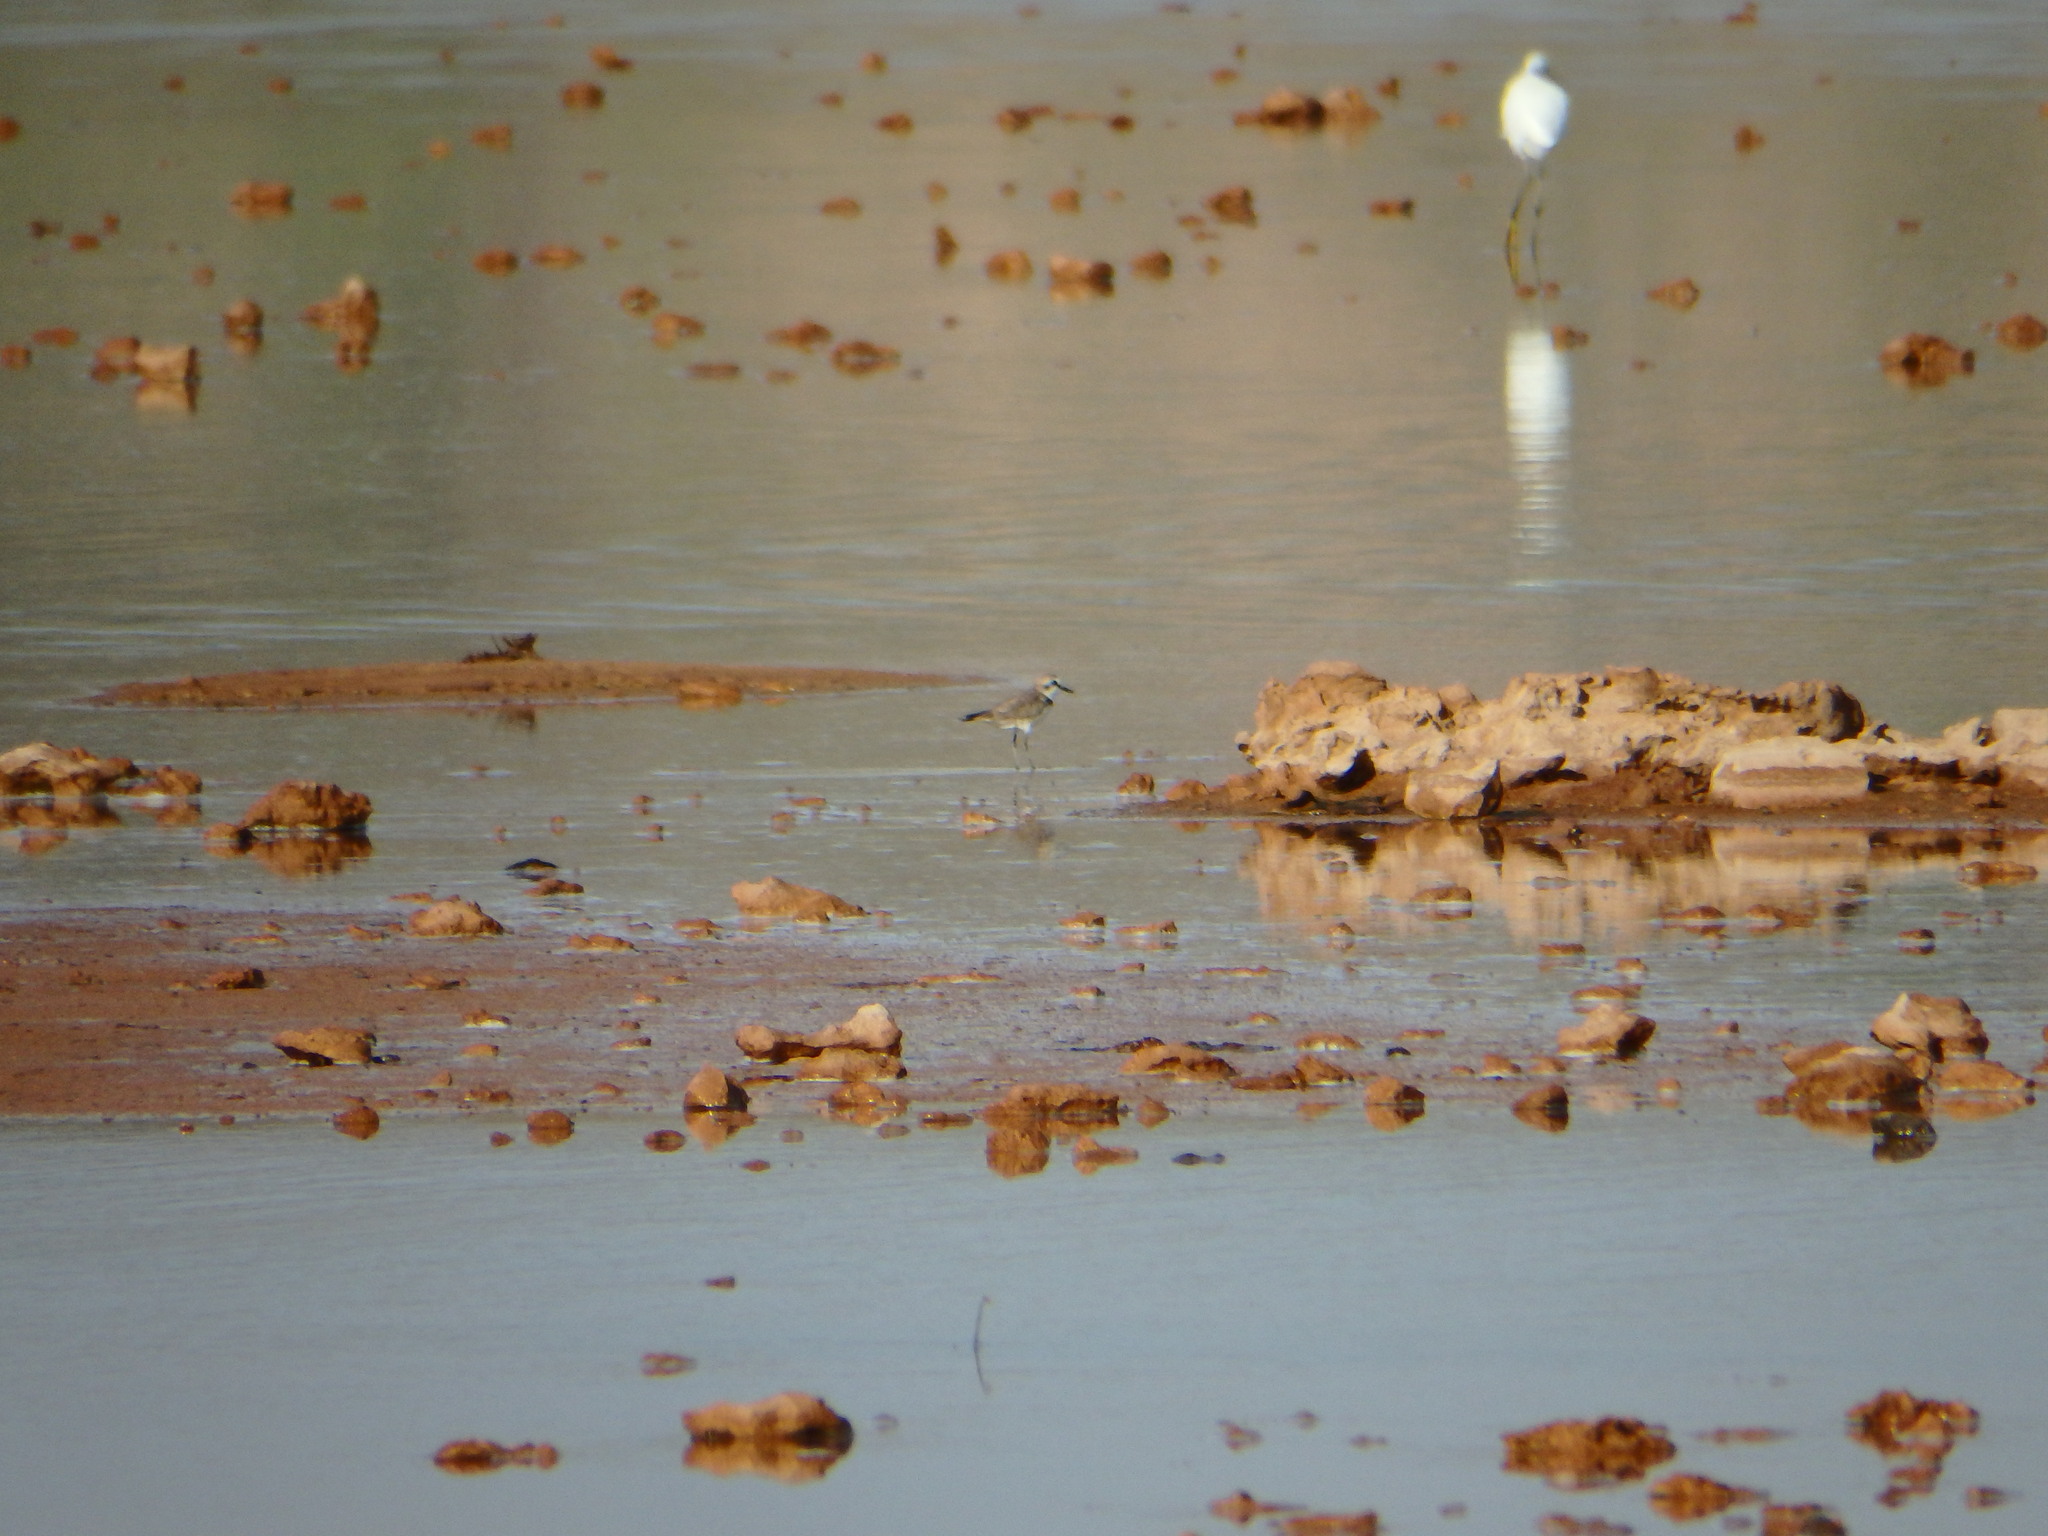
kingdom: Animalia
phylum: Chordata
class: Aves
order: Charadriiformes
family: Charadriidae
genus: Charadrius
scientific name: Charadrius alexandrinus
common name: Kentish plover
